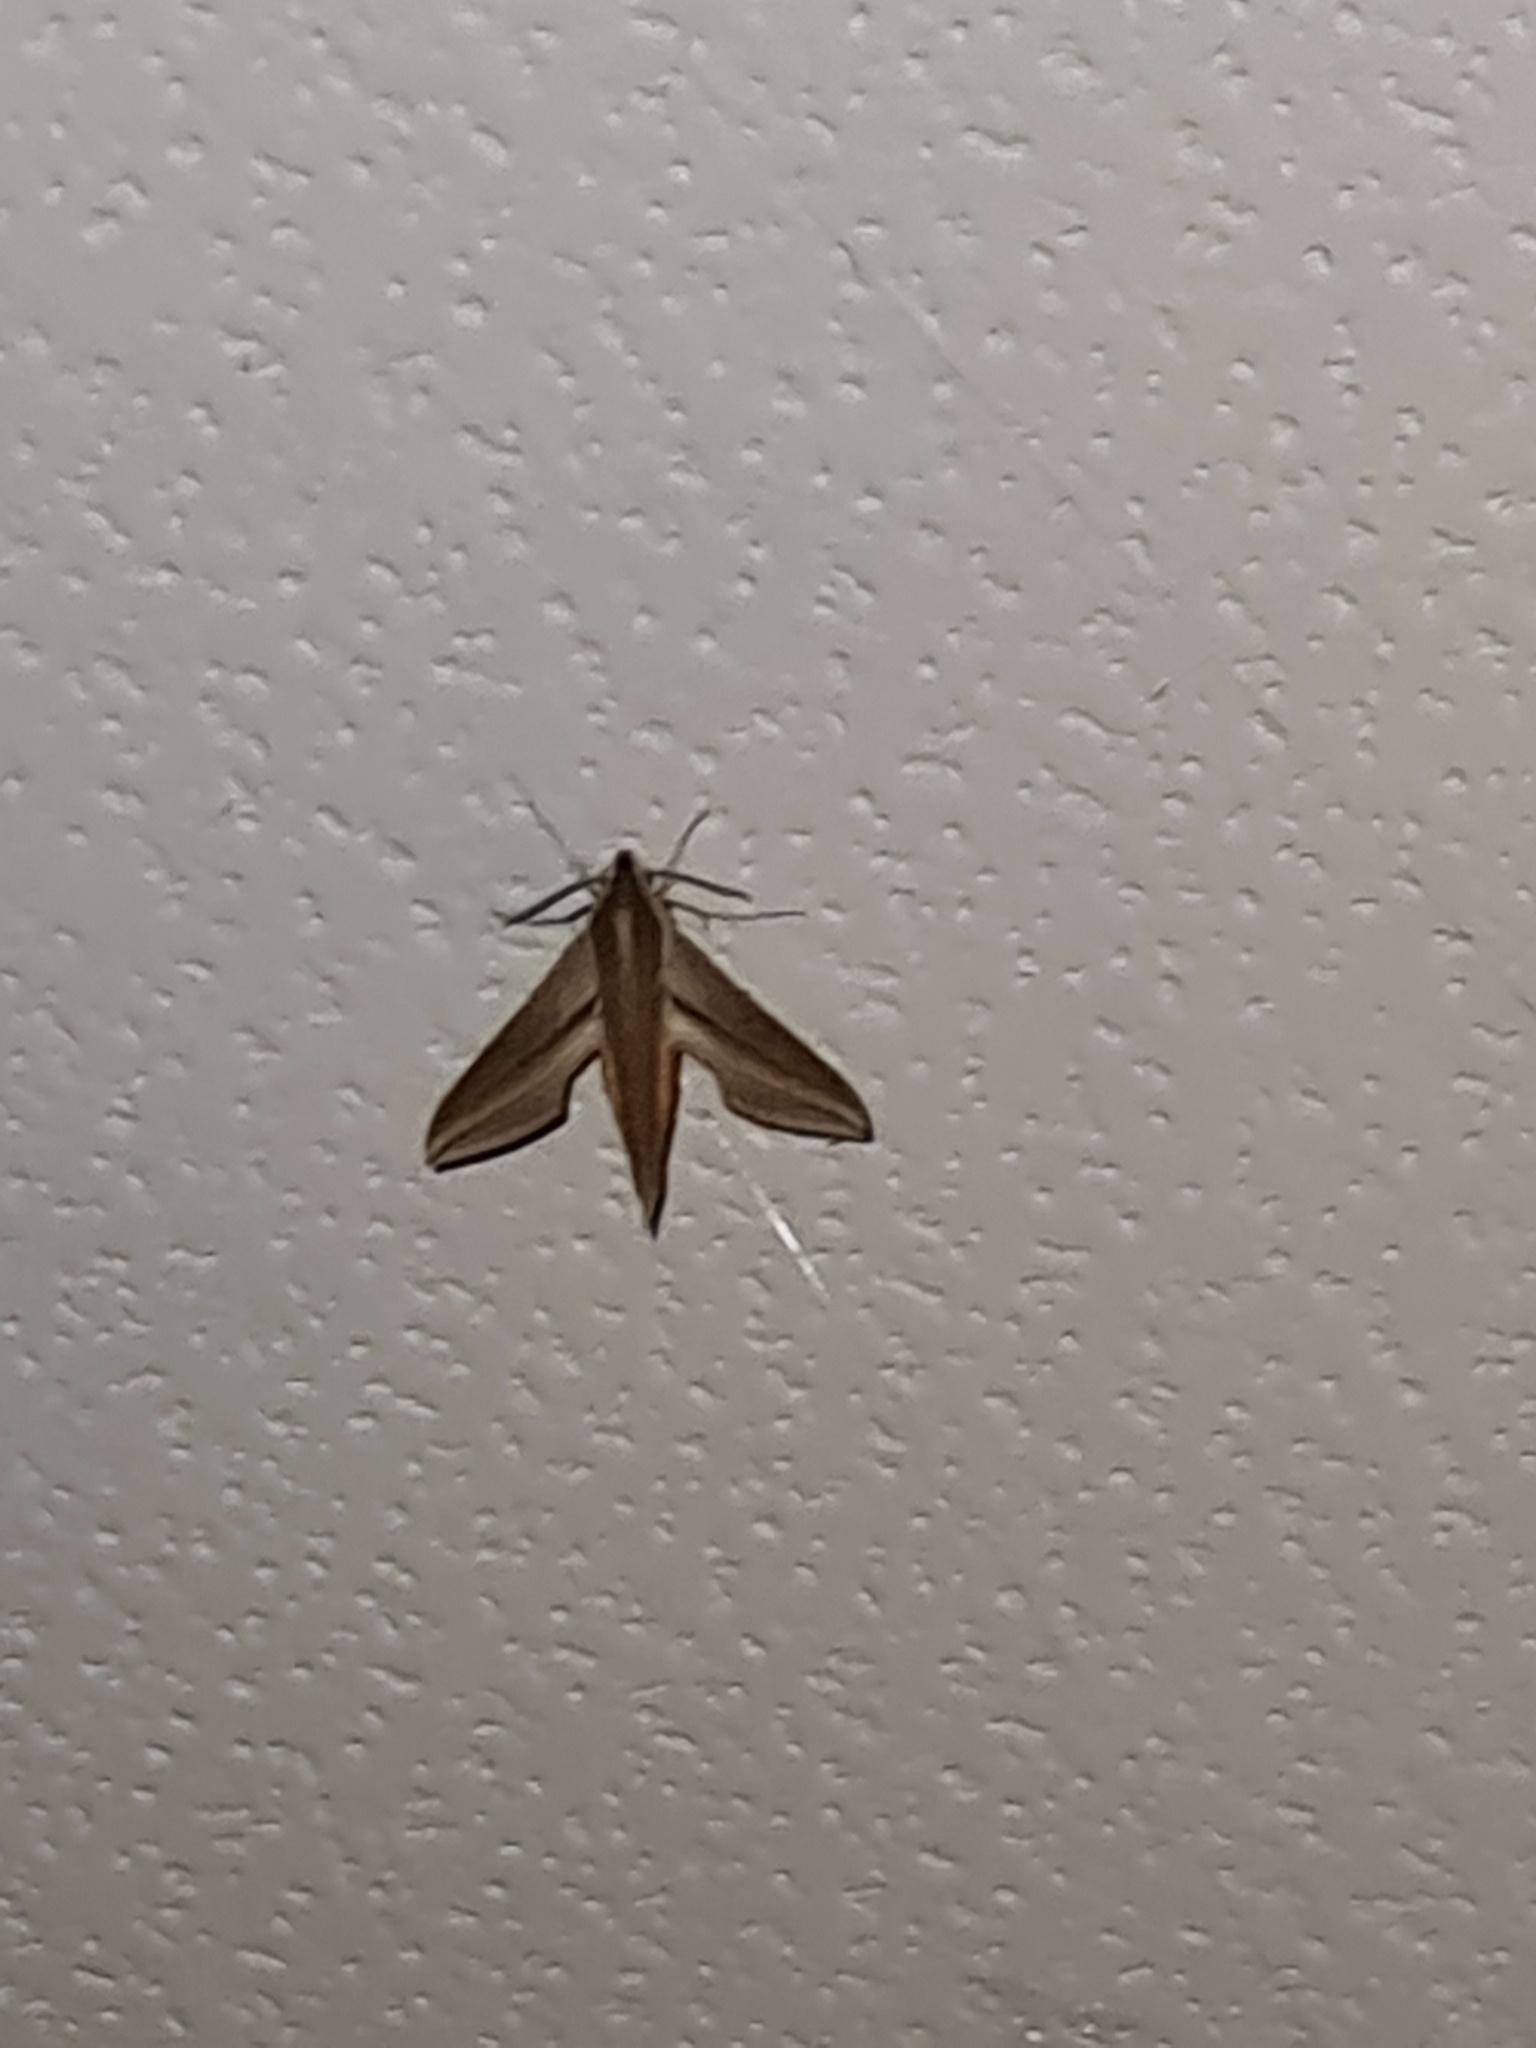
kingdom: Animalia
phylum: Arthropoda
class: Insecta
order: Lepidoptera
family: Sphingidae
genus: Theretra
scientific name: Theretra japonica
